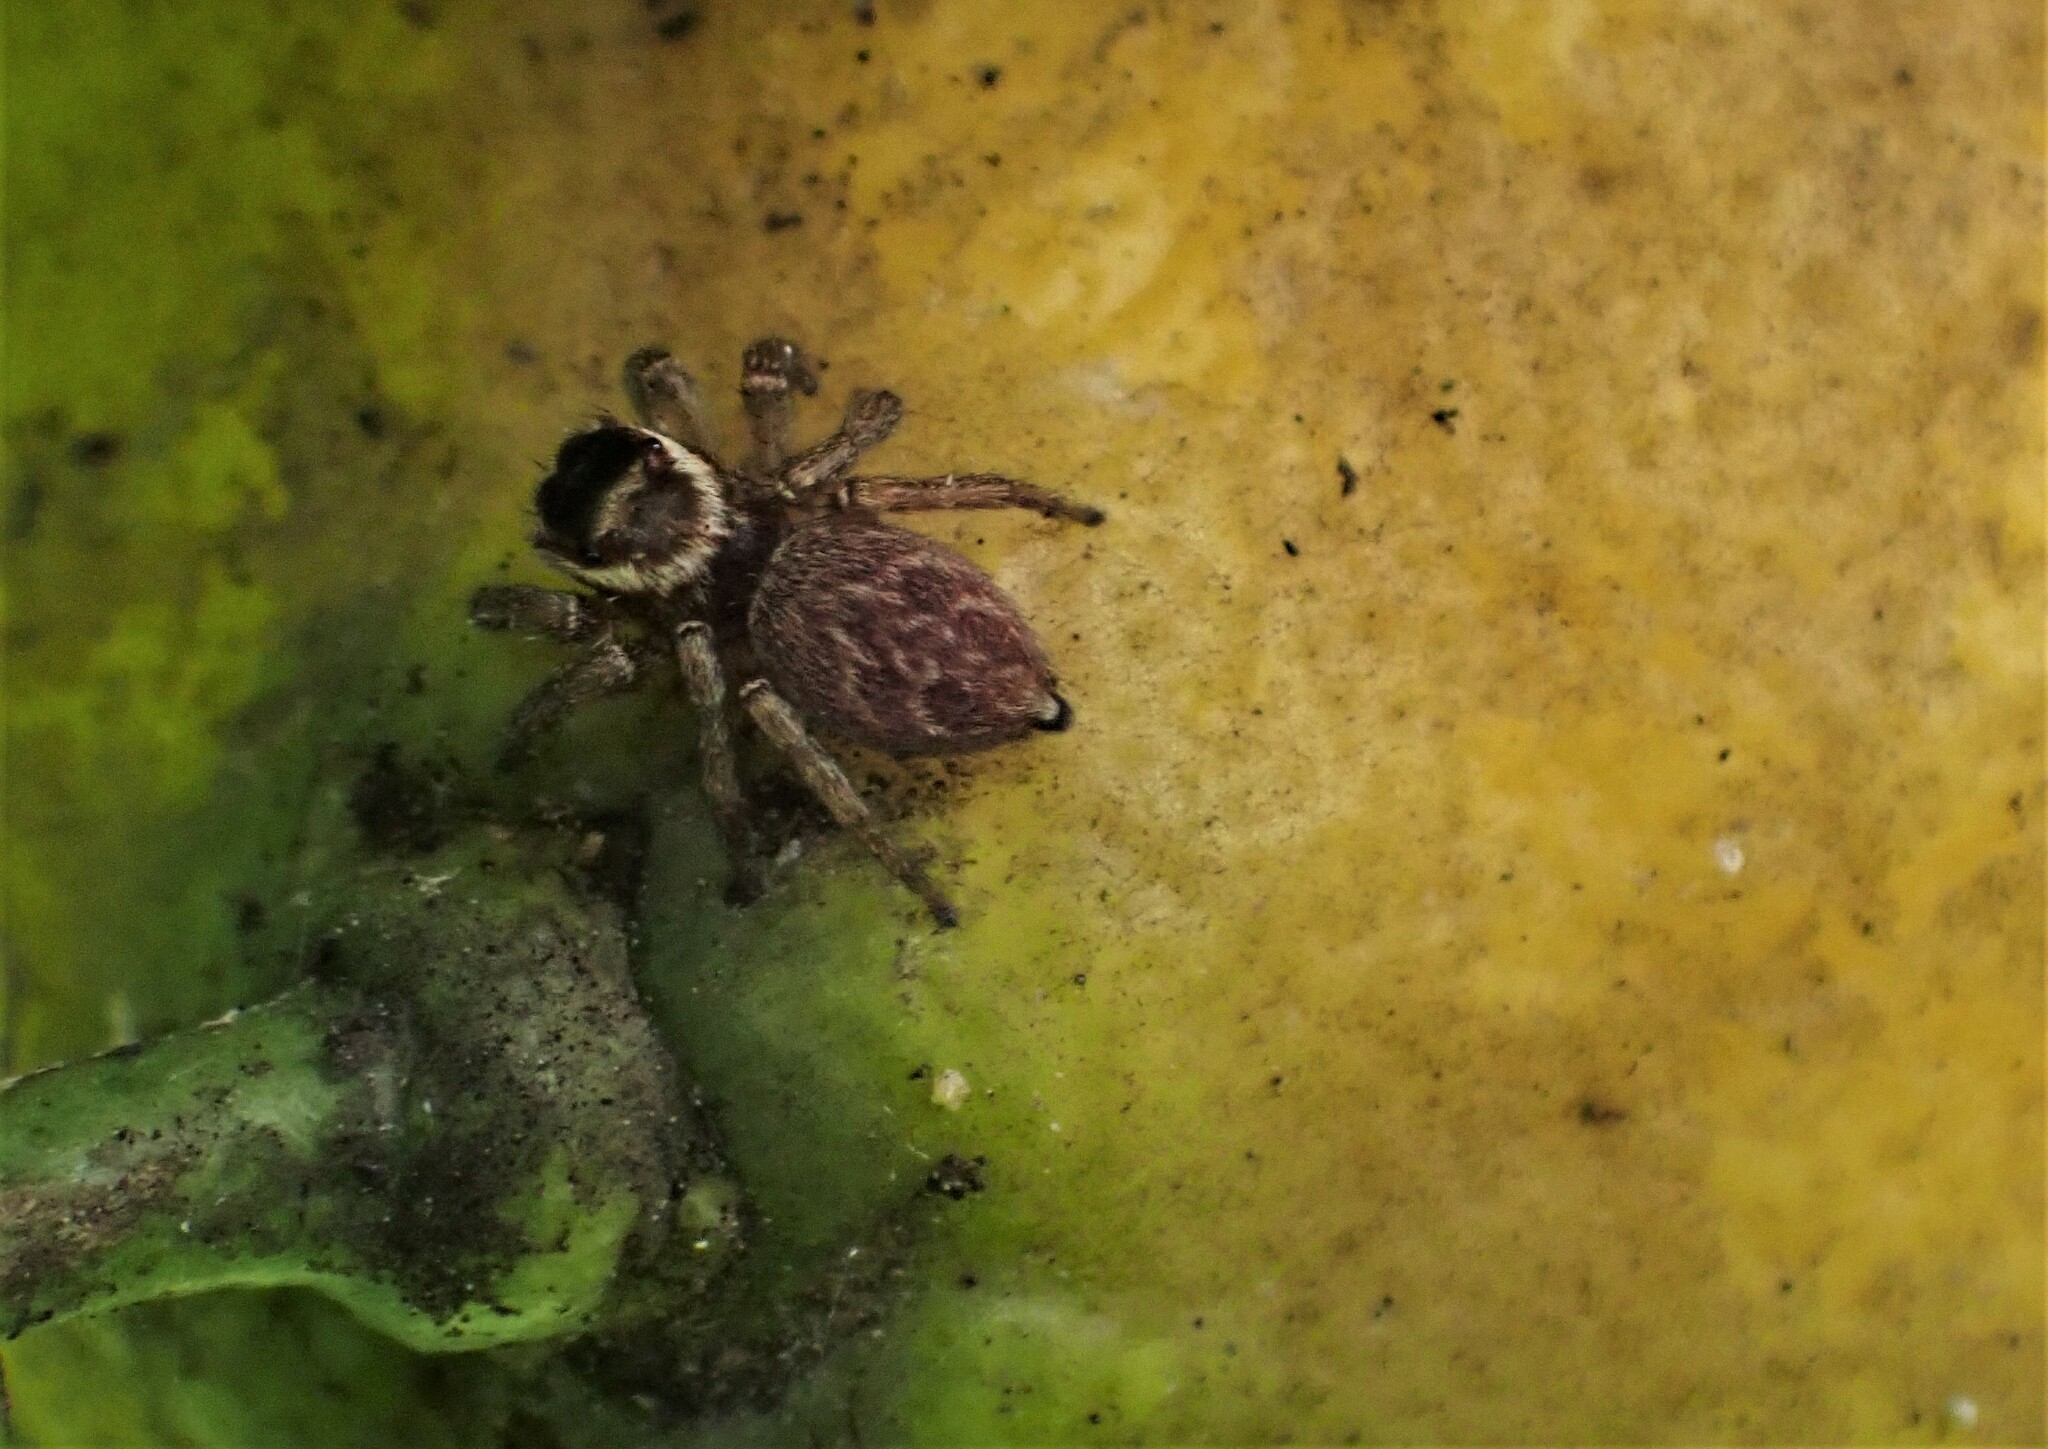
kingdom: Animalia
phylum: Arthropoda
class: Arachnida
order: Araneae
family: Salticidae
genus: Maratus
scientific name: Maratus griseus
